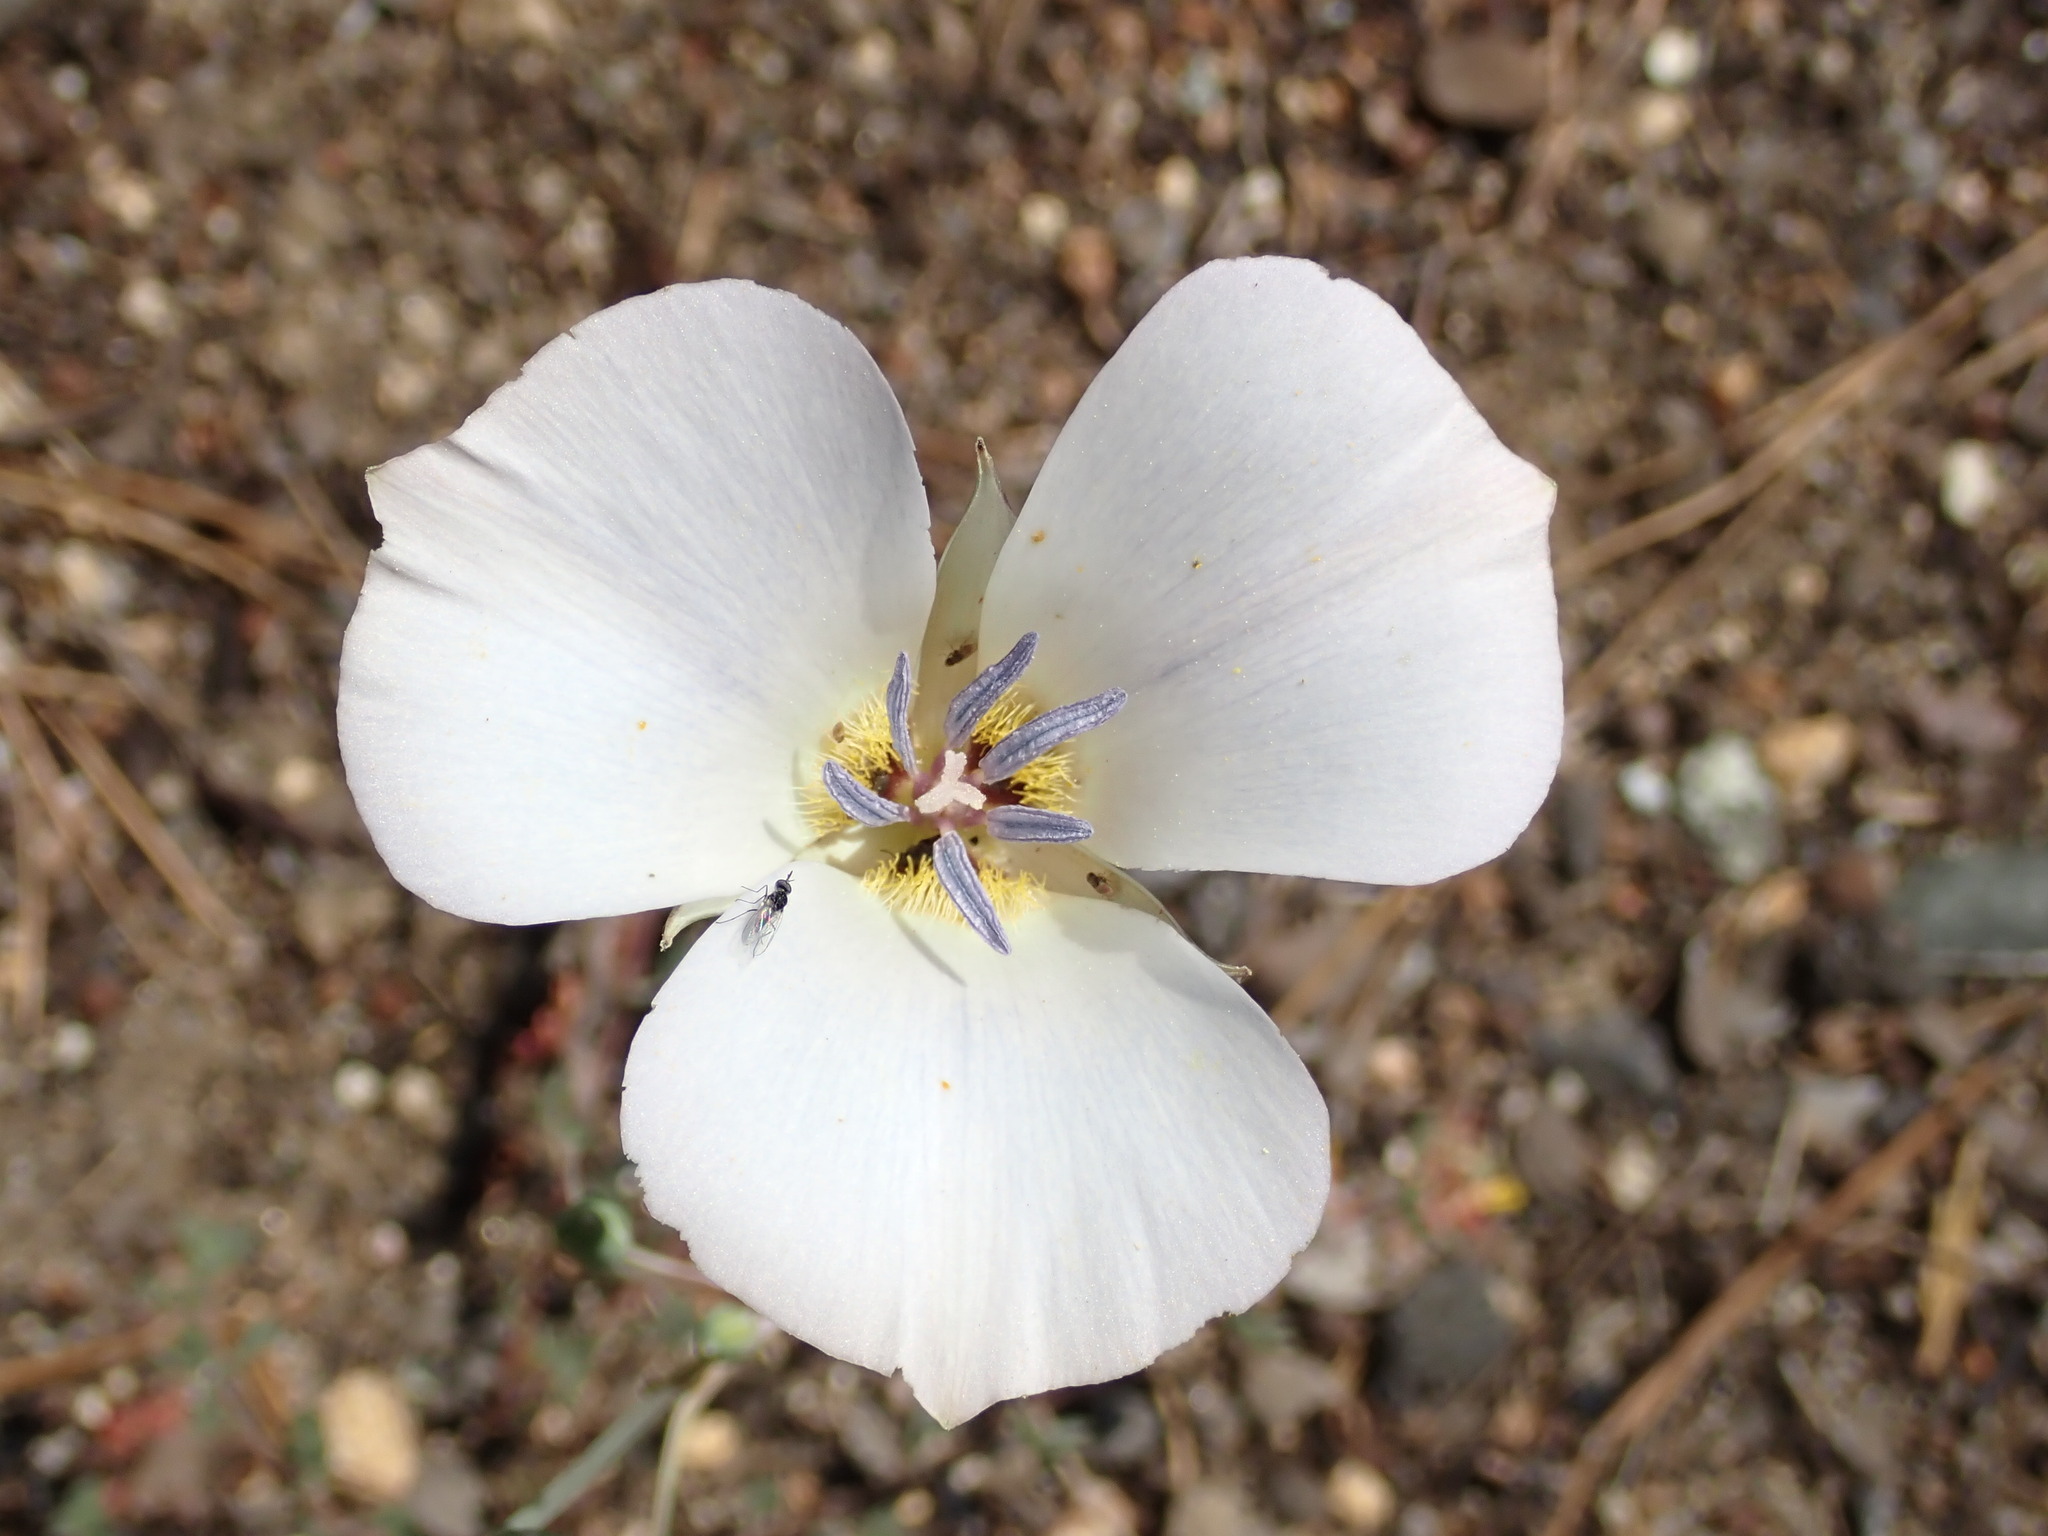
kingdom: Plantae
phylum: Tracheophyta
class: Liliopsida
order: Liliales
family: Liliaceae
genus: Calochortus
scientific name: Calochortus invenustus
